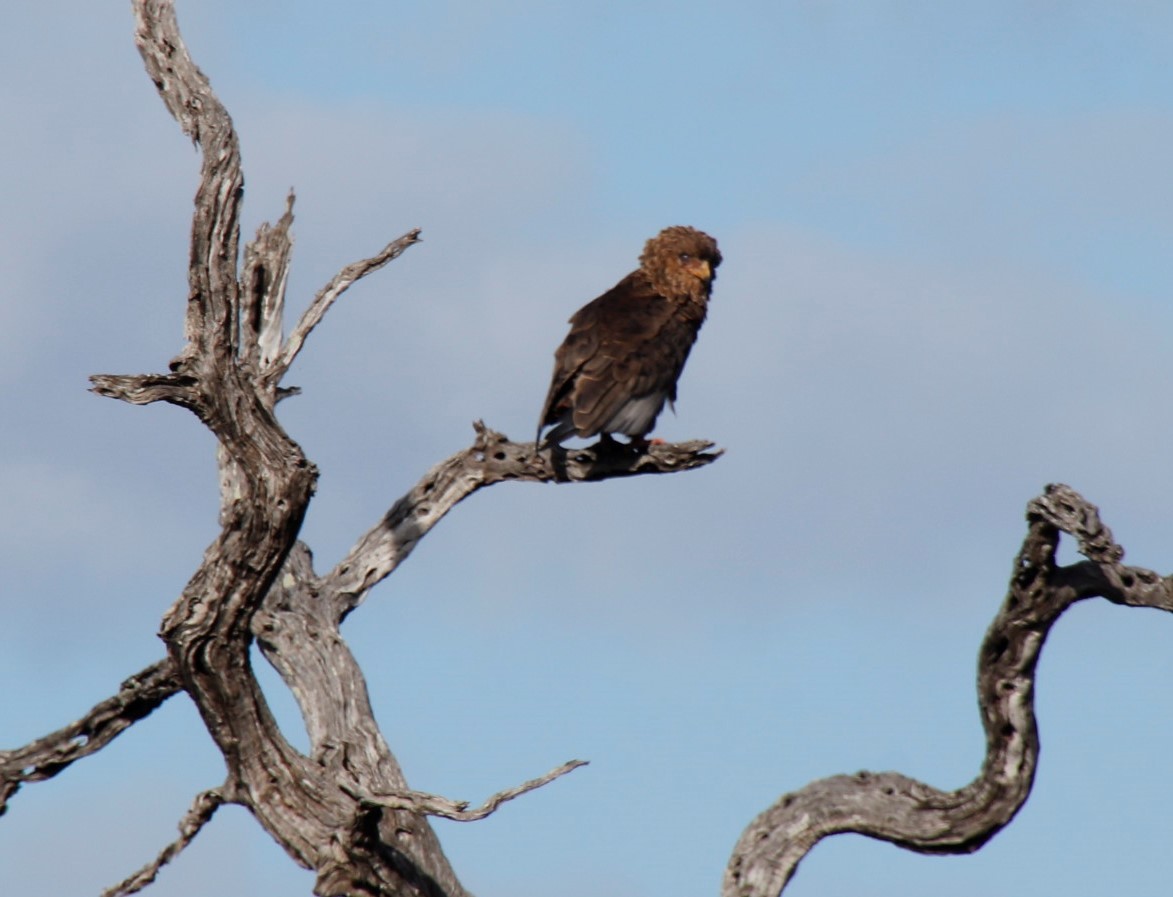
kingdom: Animalia
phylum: Chordata
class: Aves
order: Accipitriformes
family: Accipitridae
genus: Terathopius
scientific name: Terathopius ecaudatus
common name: Bateleur
